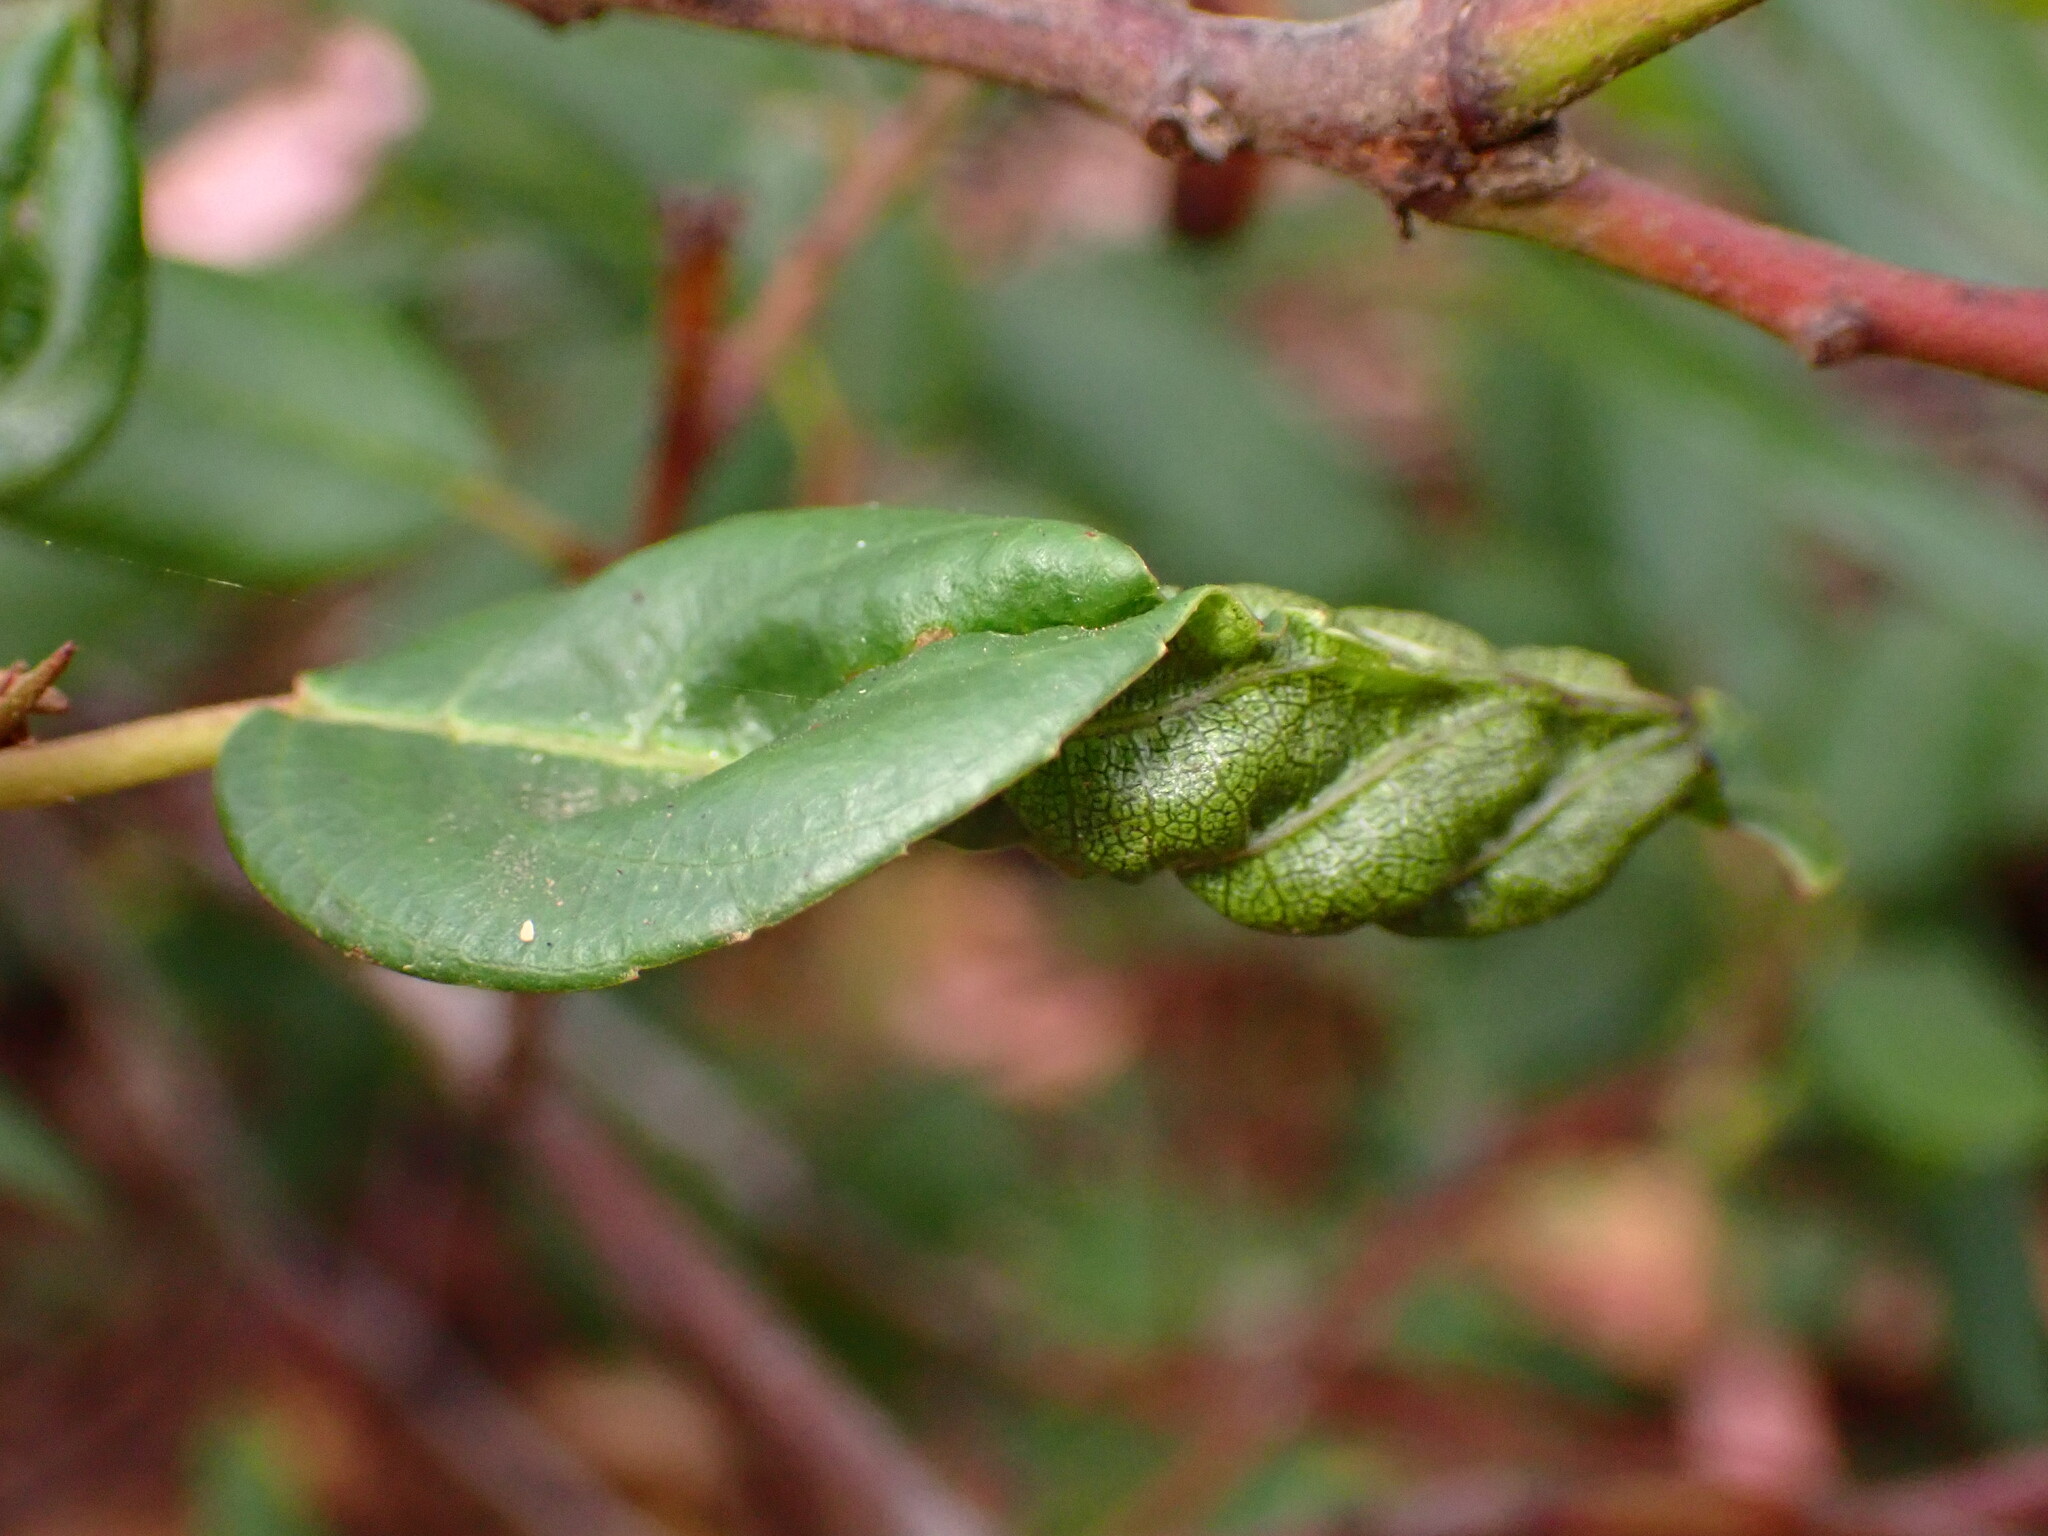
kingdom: Animalia
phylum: Arthropoda
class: Insecta
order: Lepidoptera
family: Cosmopterigidae
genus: Sorhagenia
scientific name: Sorhagenia nimbosus
